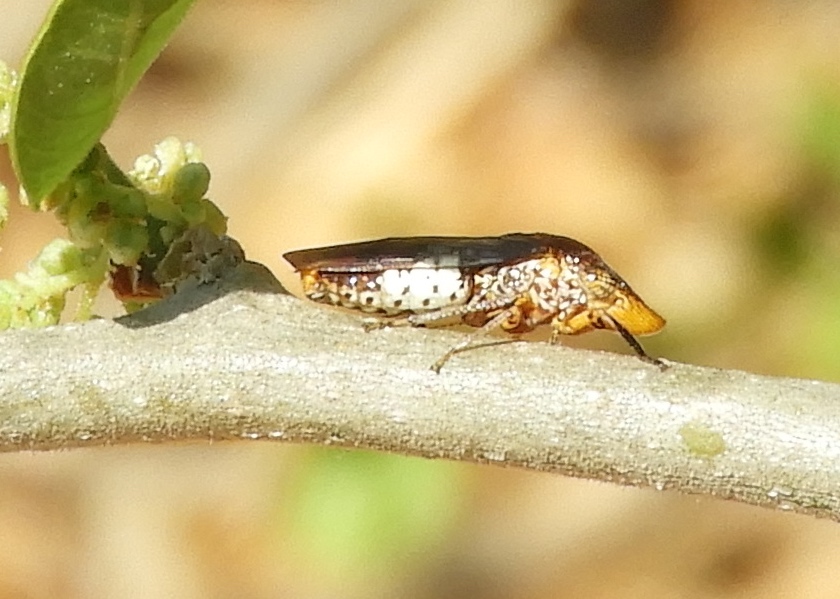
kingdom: Animalia
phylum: Arthropoda
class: Insecta
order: Hemiptera
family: Cicadellidae
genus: Homalodisca
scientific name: Homalodisca
